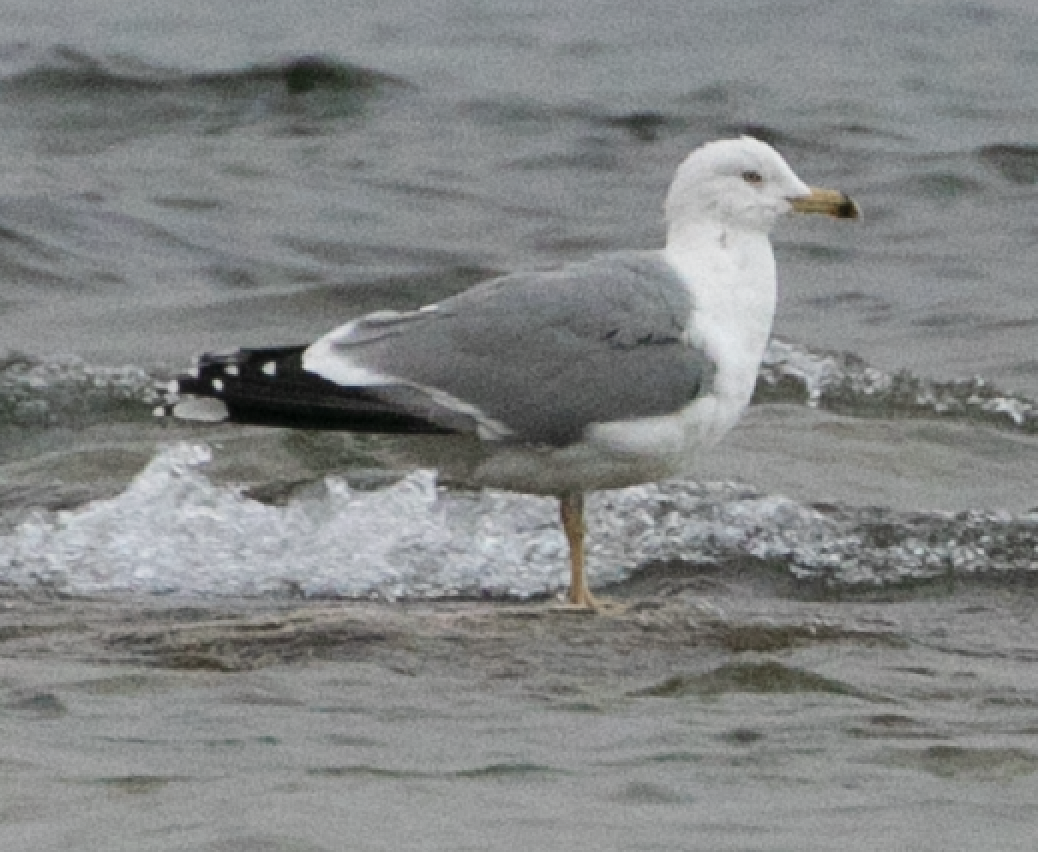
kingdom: Animalia
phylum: Chordata
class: Aves
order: Charadriiformes
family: Laridae
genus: Larus
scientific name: Larus michahellis
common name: Yellow-legged gull
